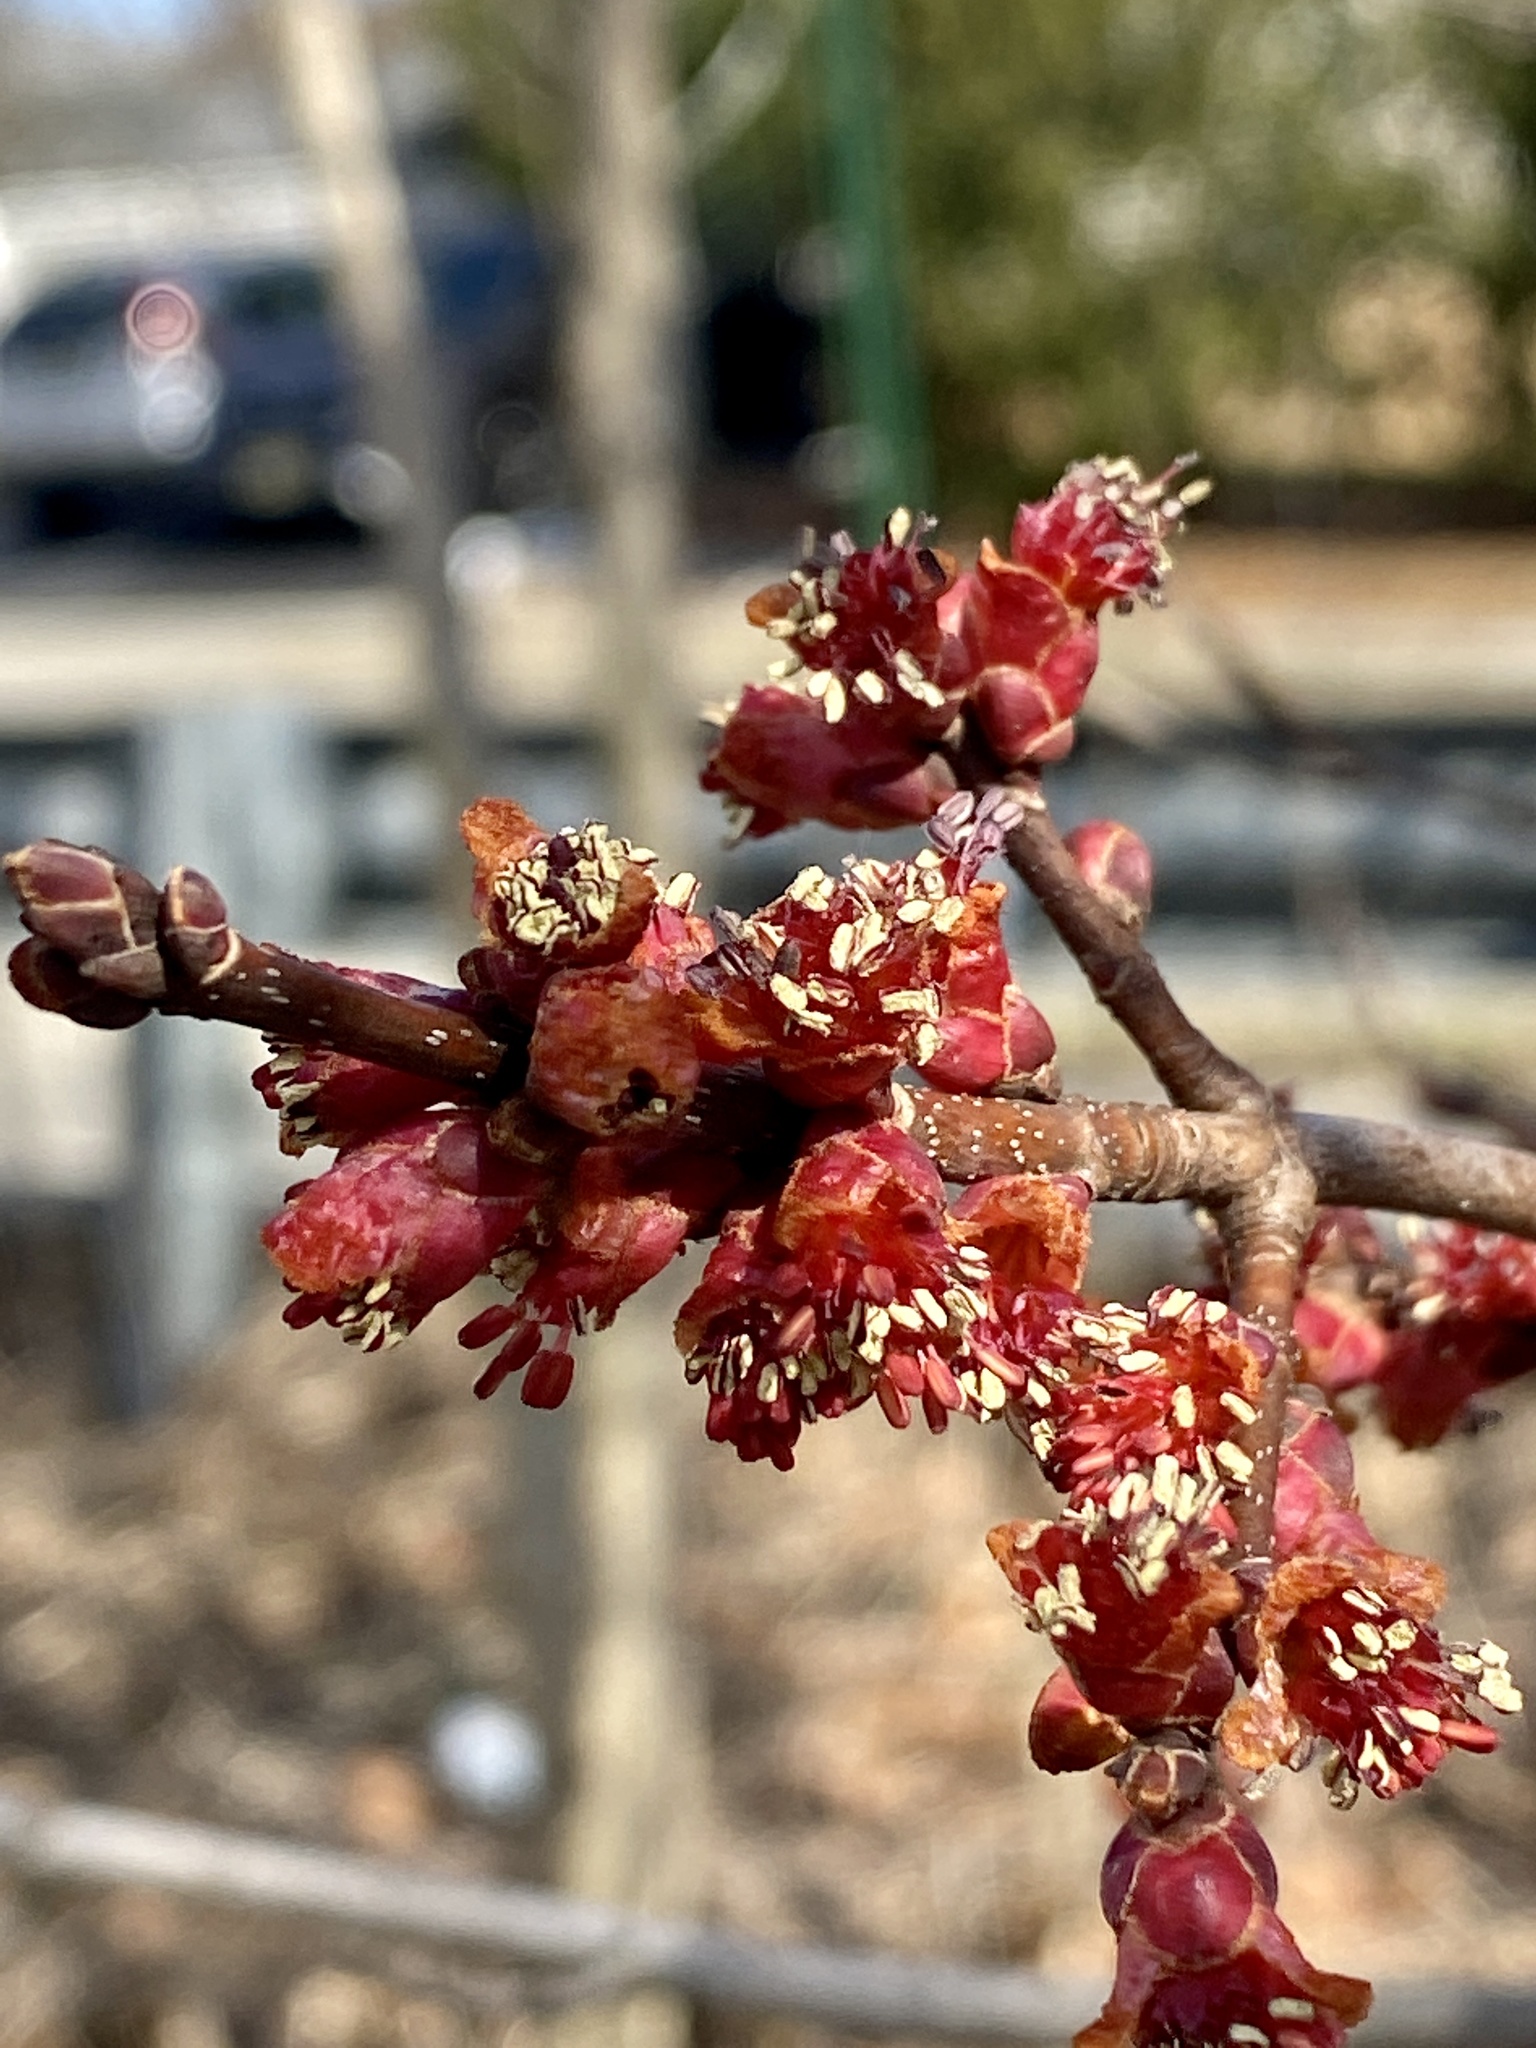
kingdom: Plantae
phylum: Tracheophyta
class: Magnoliopsida
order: Sapindales
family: Sapindaceae
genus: Acer
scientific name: Acer rubrum
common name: Red maple
